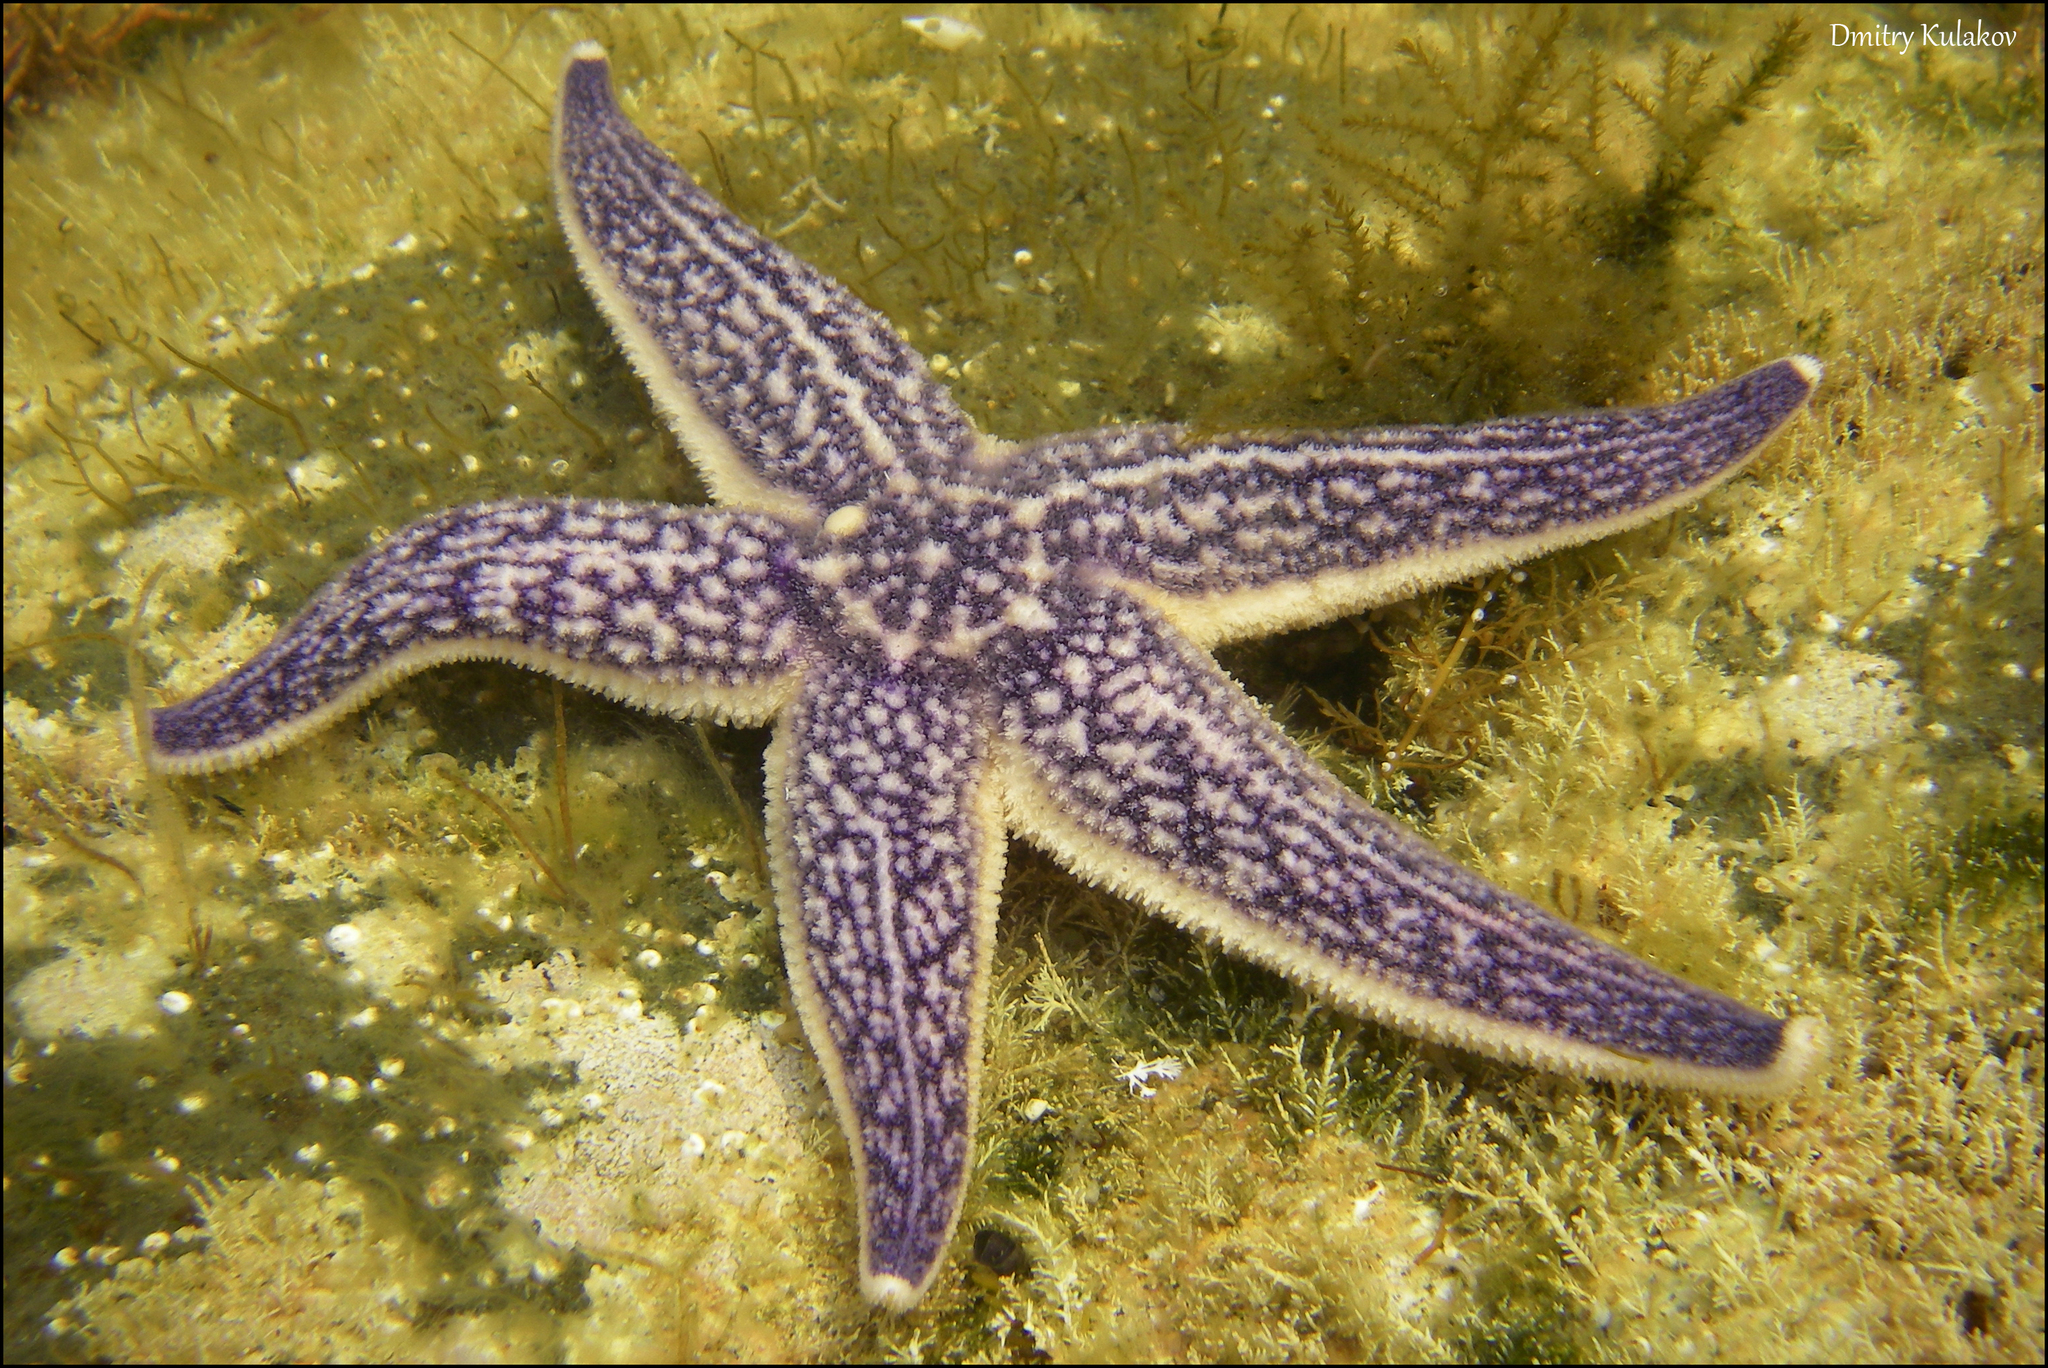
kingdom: Animalia
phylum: Echinodermata
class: Asteroidea
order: Forcipulatida
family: Asteriidae
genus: Asterias
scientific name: Asterias amurensis
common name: Flat-bottomed star
